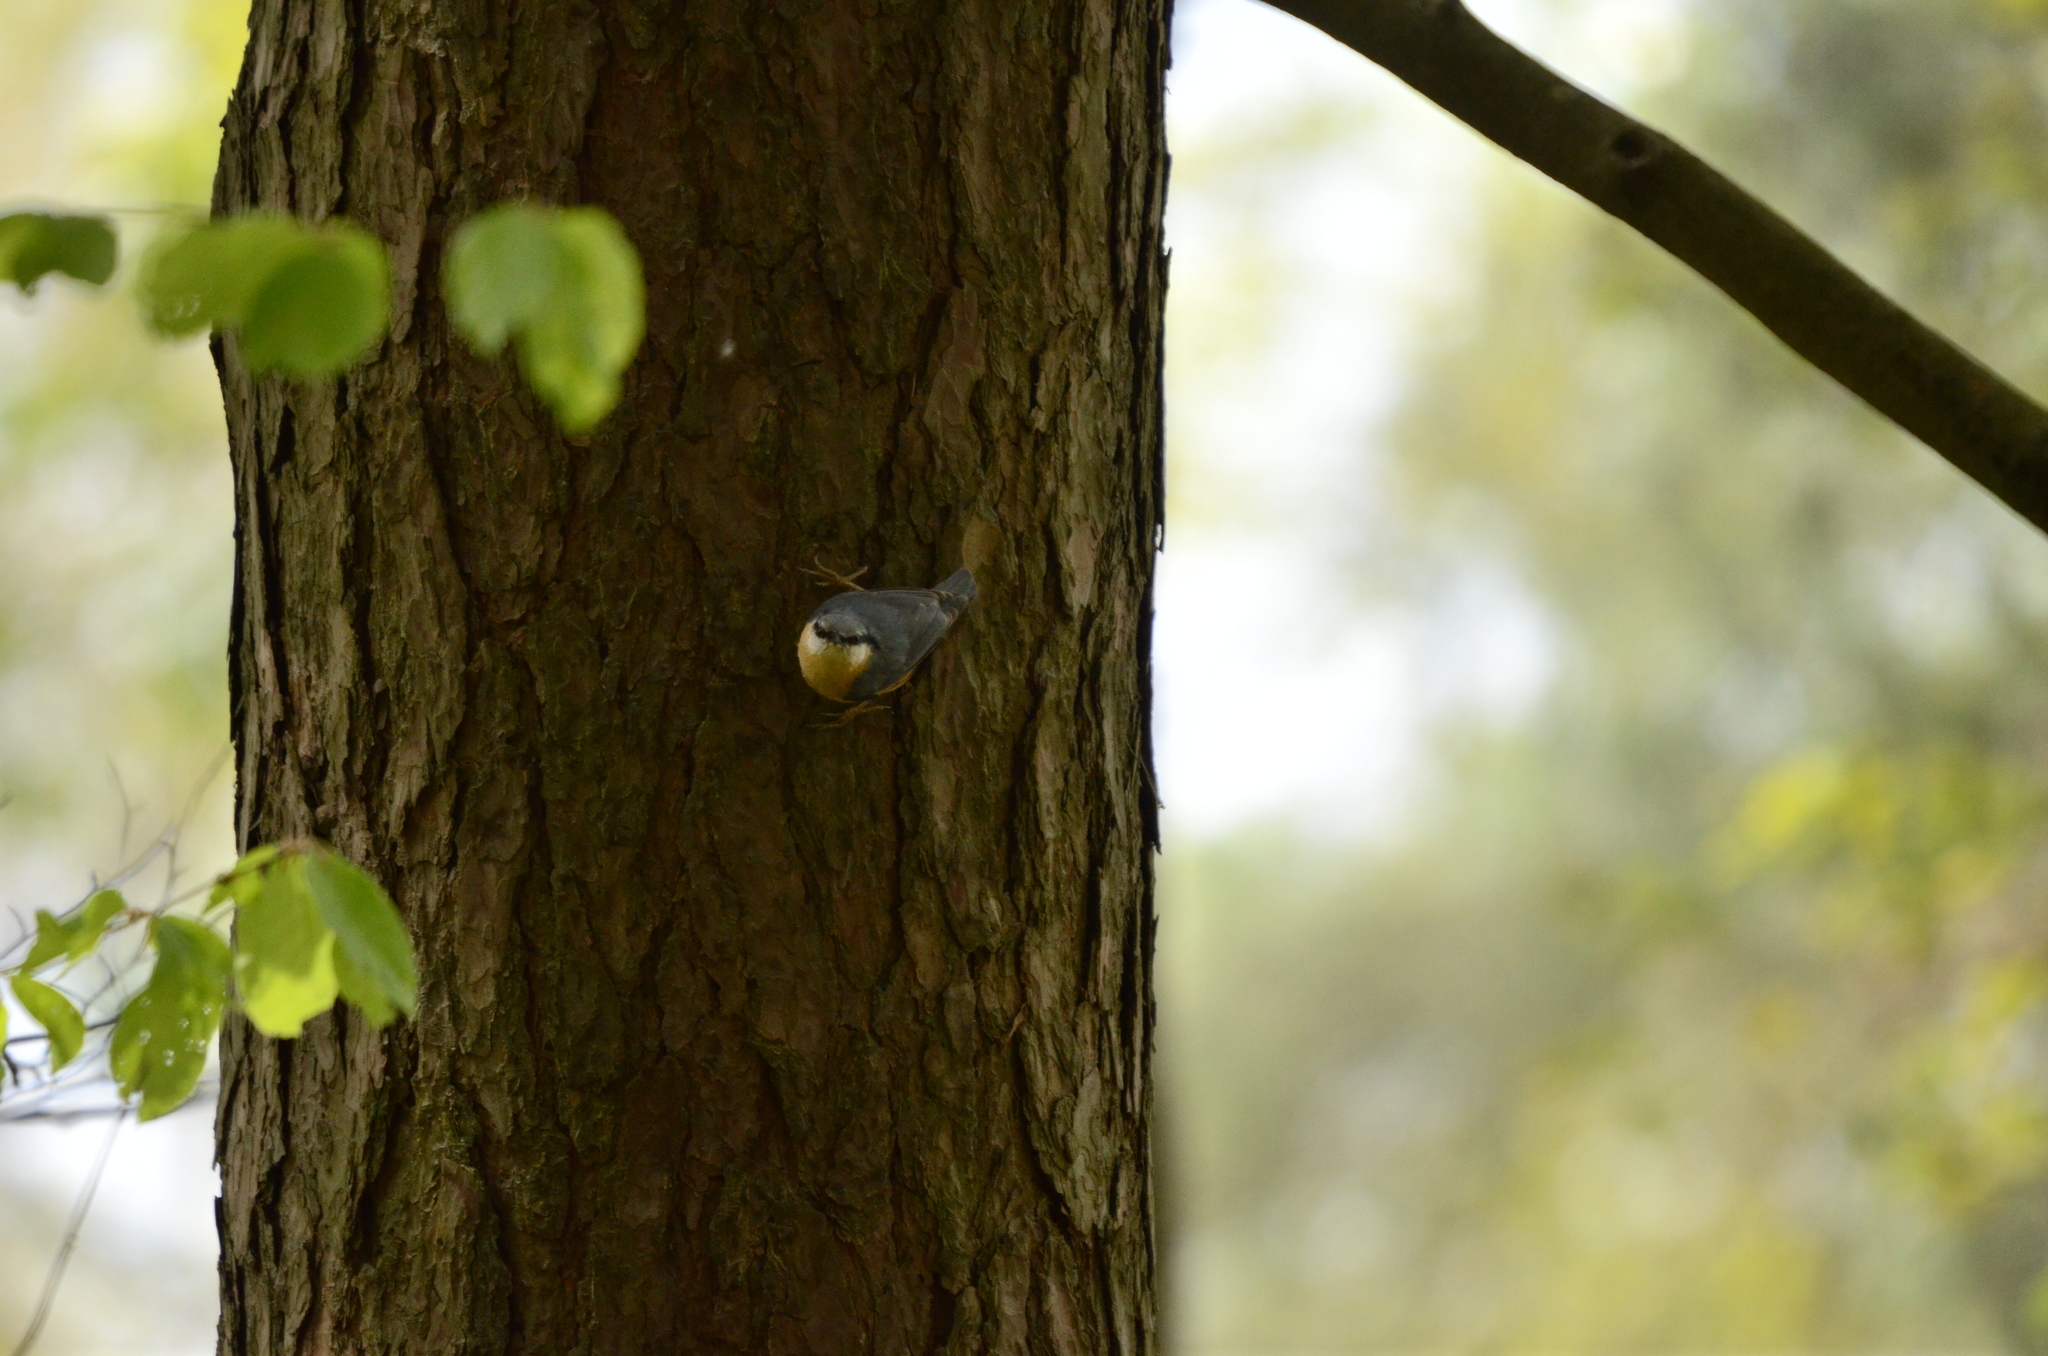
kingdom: Animalia
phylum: Chordata
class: Aves
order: Passeriformes
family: Sittidae
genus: Sitta
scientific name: Sitta europaea
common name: Eurasian nuthatch
